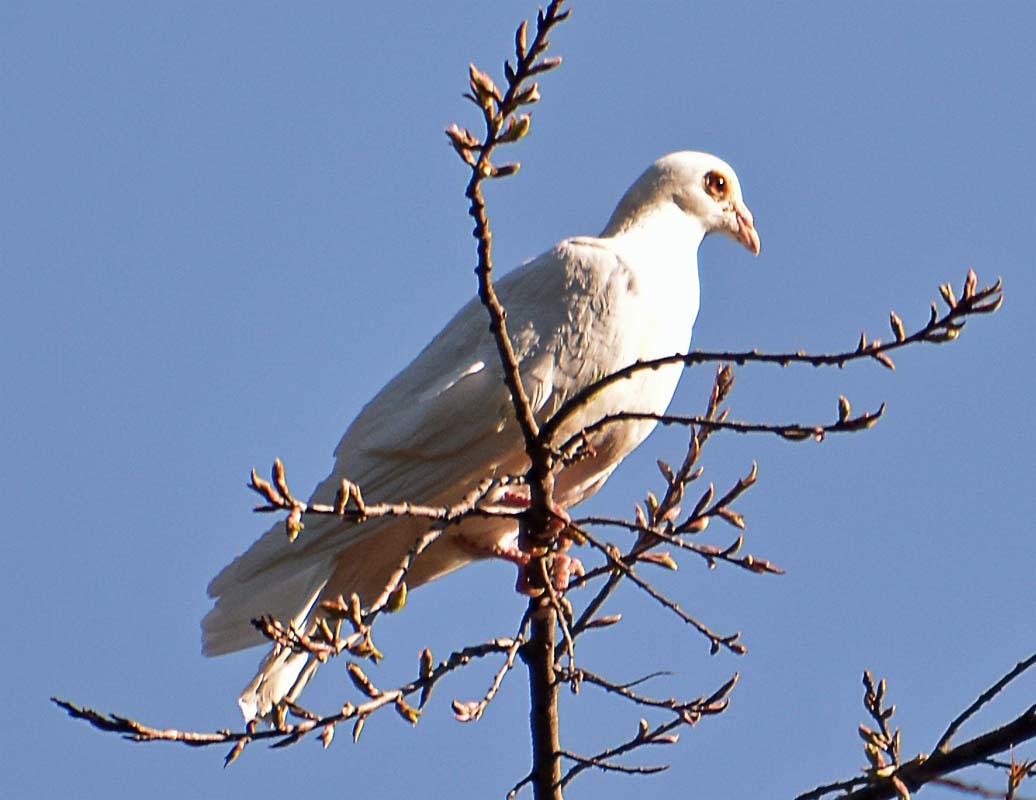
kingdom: Animalia
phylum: Chordata
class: Aves
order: Columbiformes
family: Columbidae
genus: Columba
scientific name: Columba livia
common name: Rock pigeon
